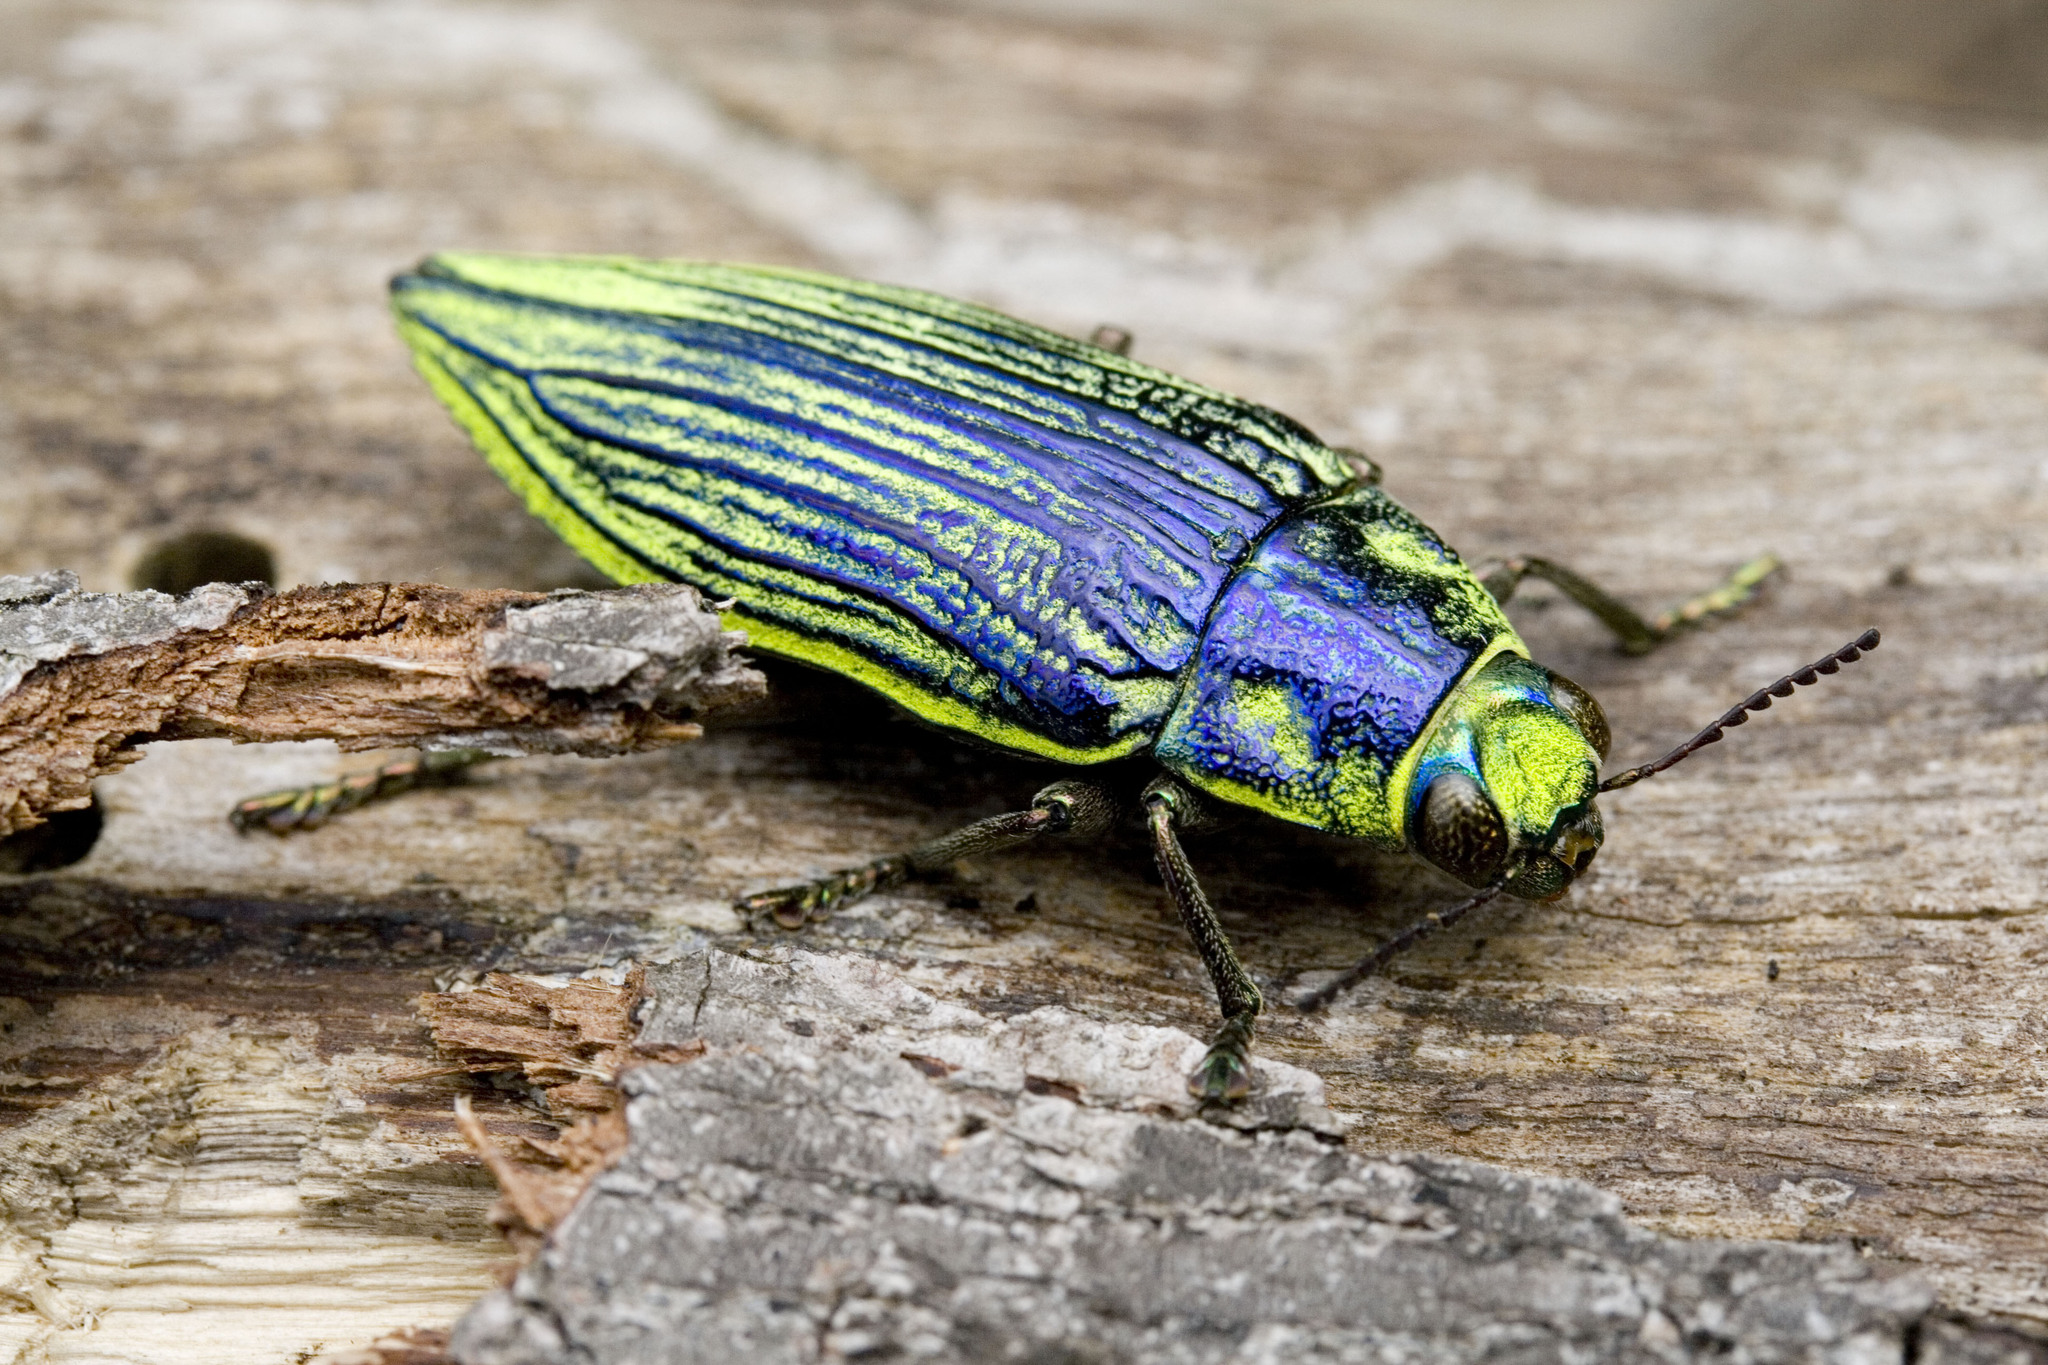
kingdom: Animalia
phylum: Arthropoda
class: Insecta
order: Coleoptera
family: Buprestidae
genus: Chrysodema
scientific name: Chrysodema eximia
